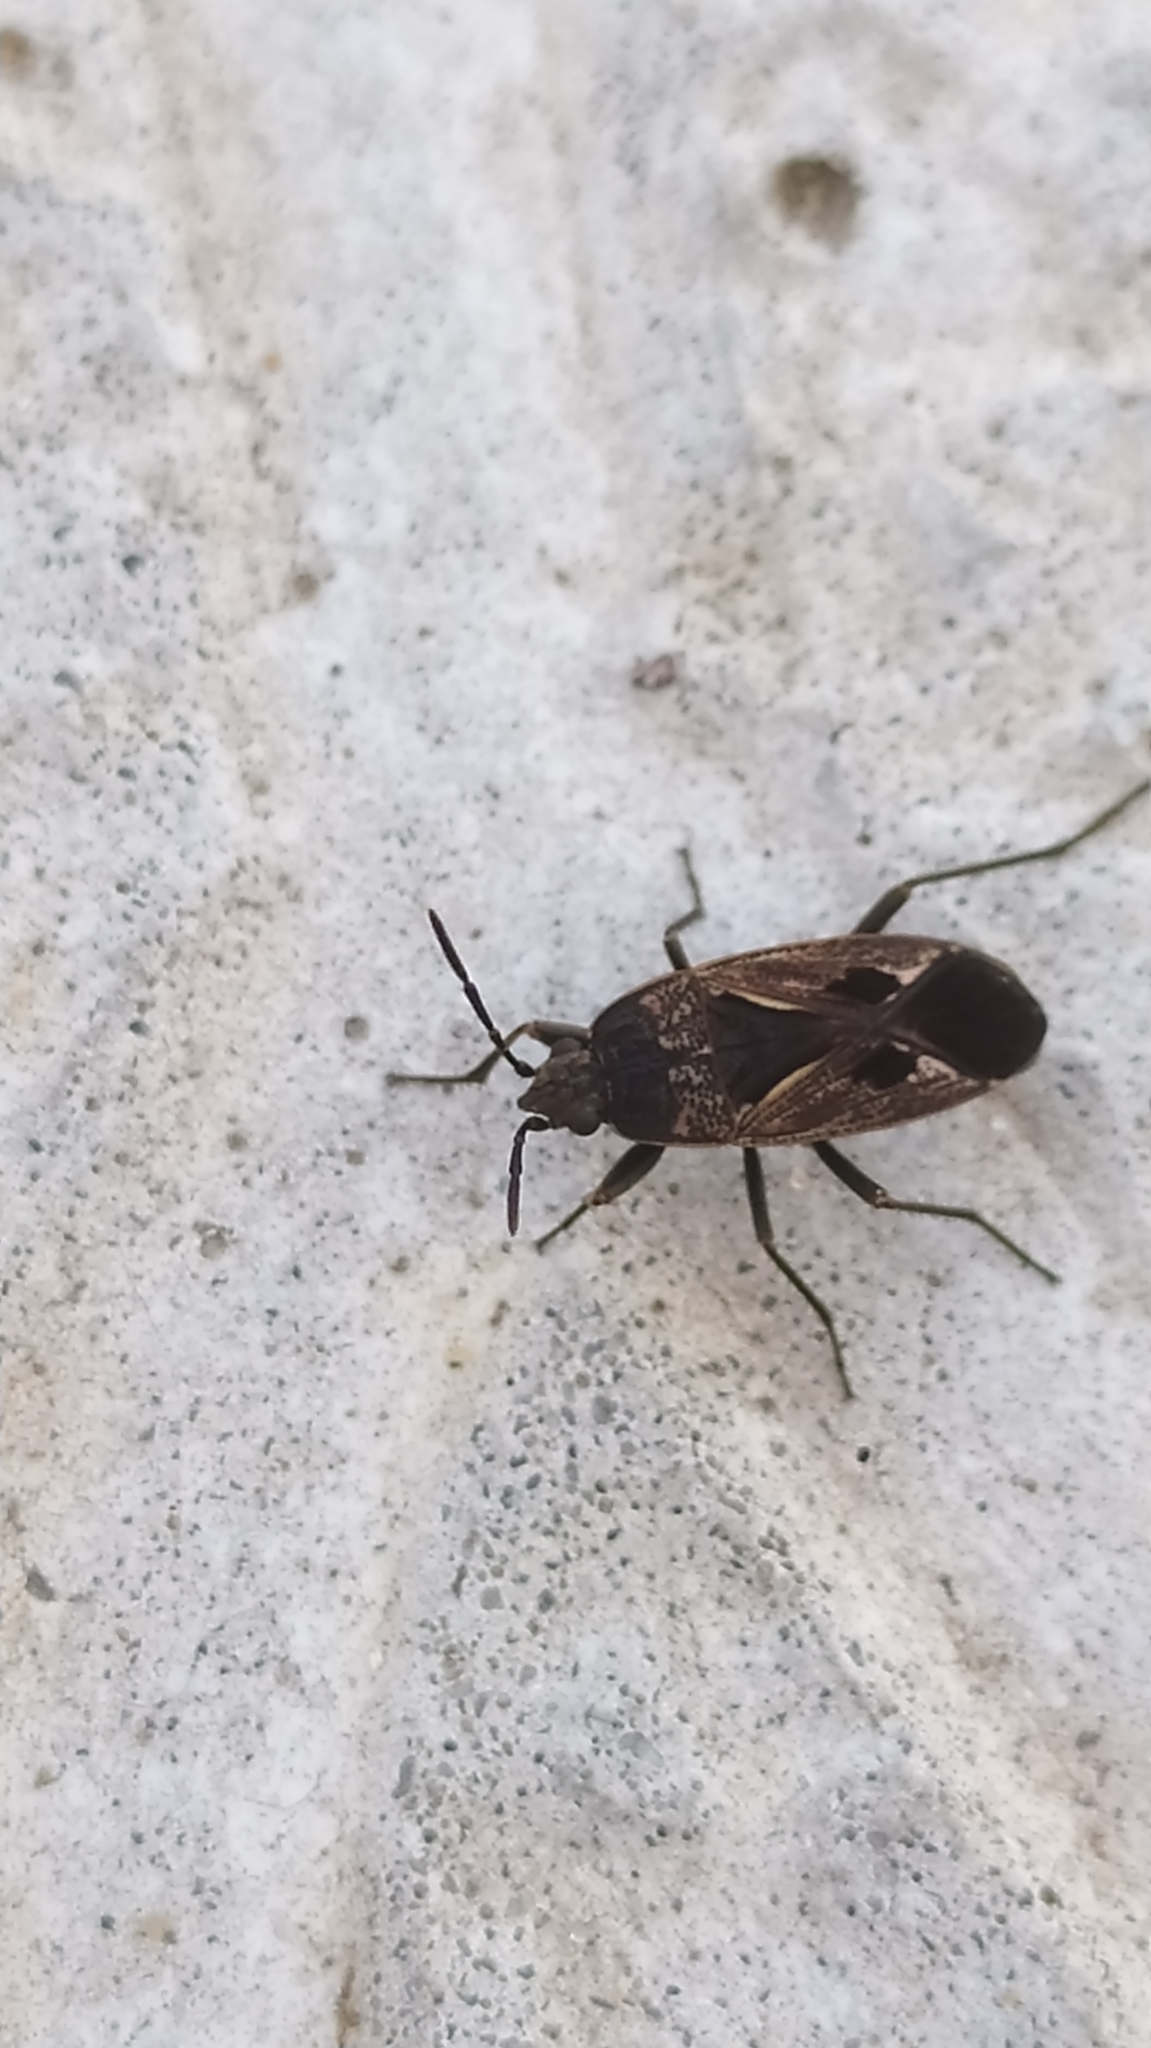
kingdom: Animalia
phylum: Arthropoda
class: Insecta
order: Hemiptera
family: Rhyparochromidae
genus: Rhyparochromus
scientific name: Rhyparochromus pini
